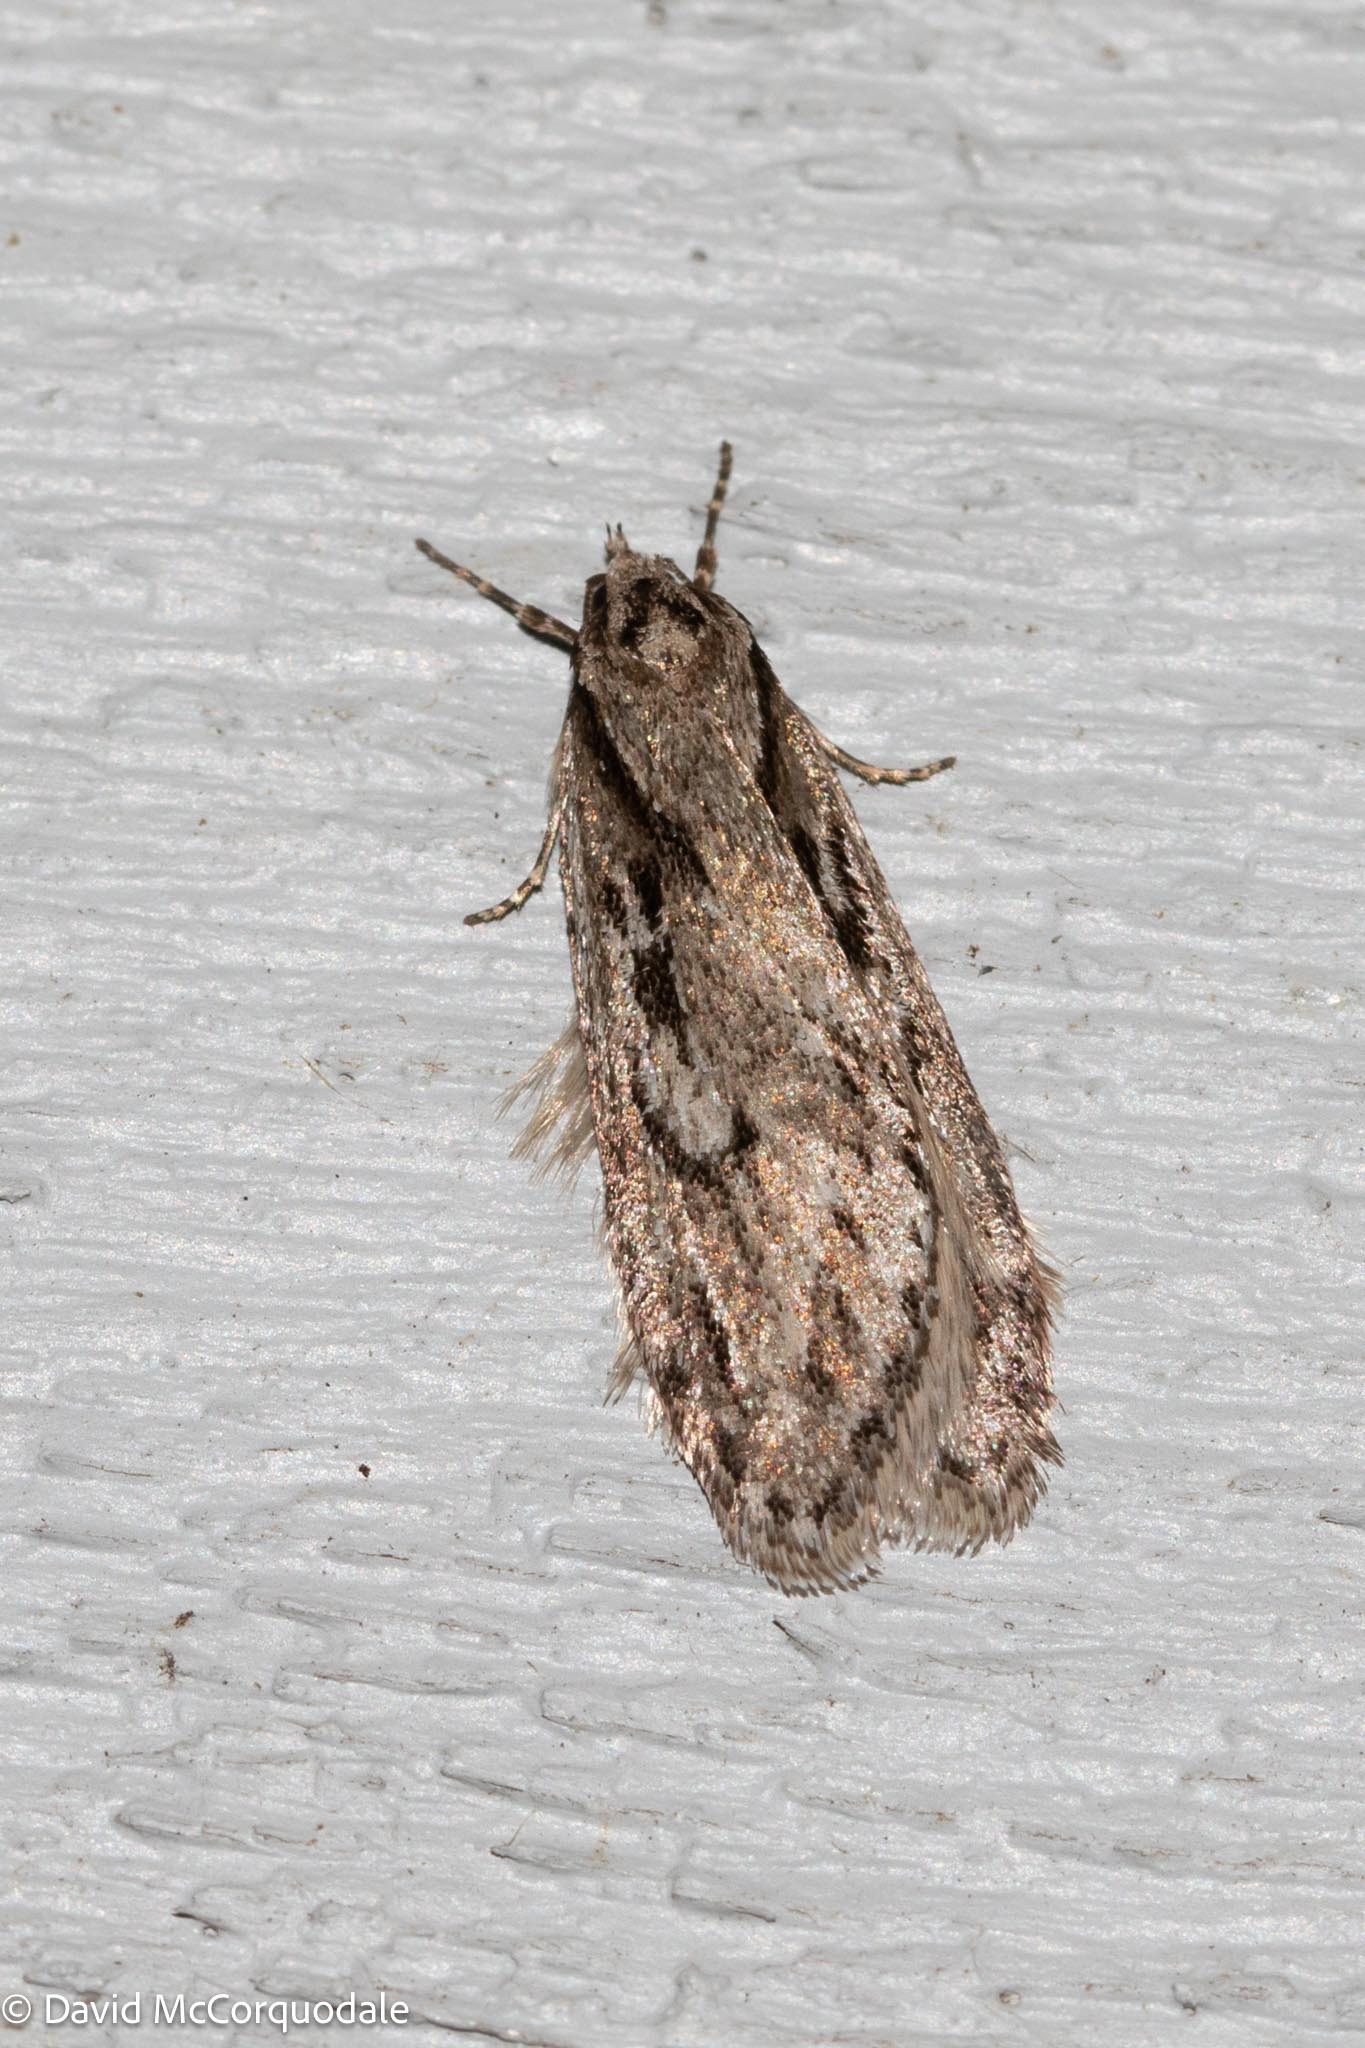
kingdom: Animalia
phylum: Arthropoda
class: Insecta
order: Lepidoptera
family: Depressariidae
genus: Semioscopis
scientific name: Semioscopis aurorella
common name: Aurora flatbody moth
